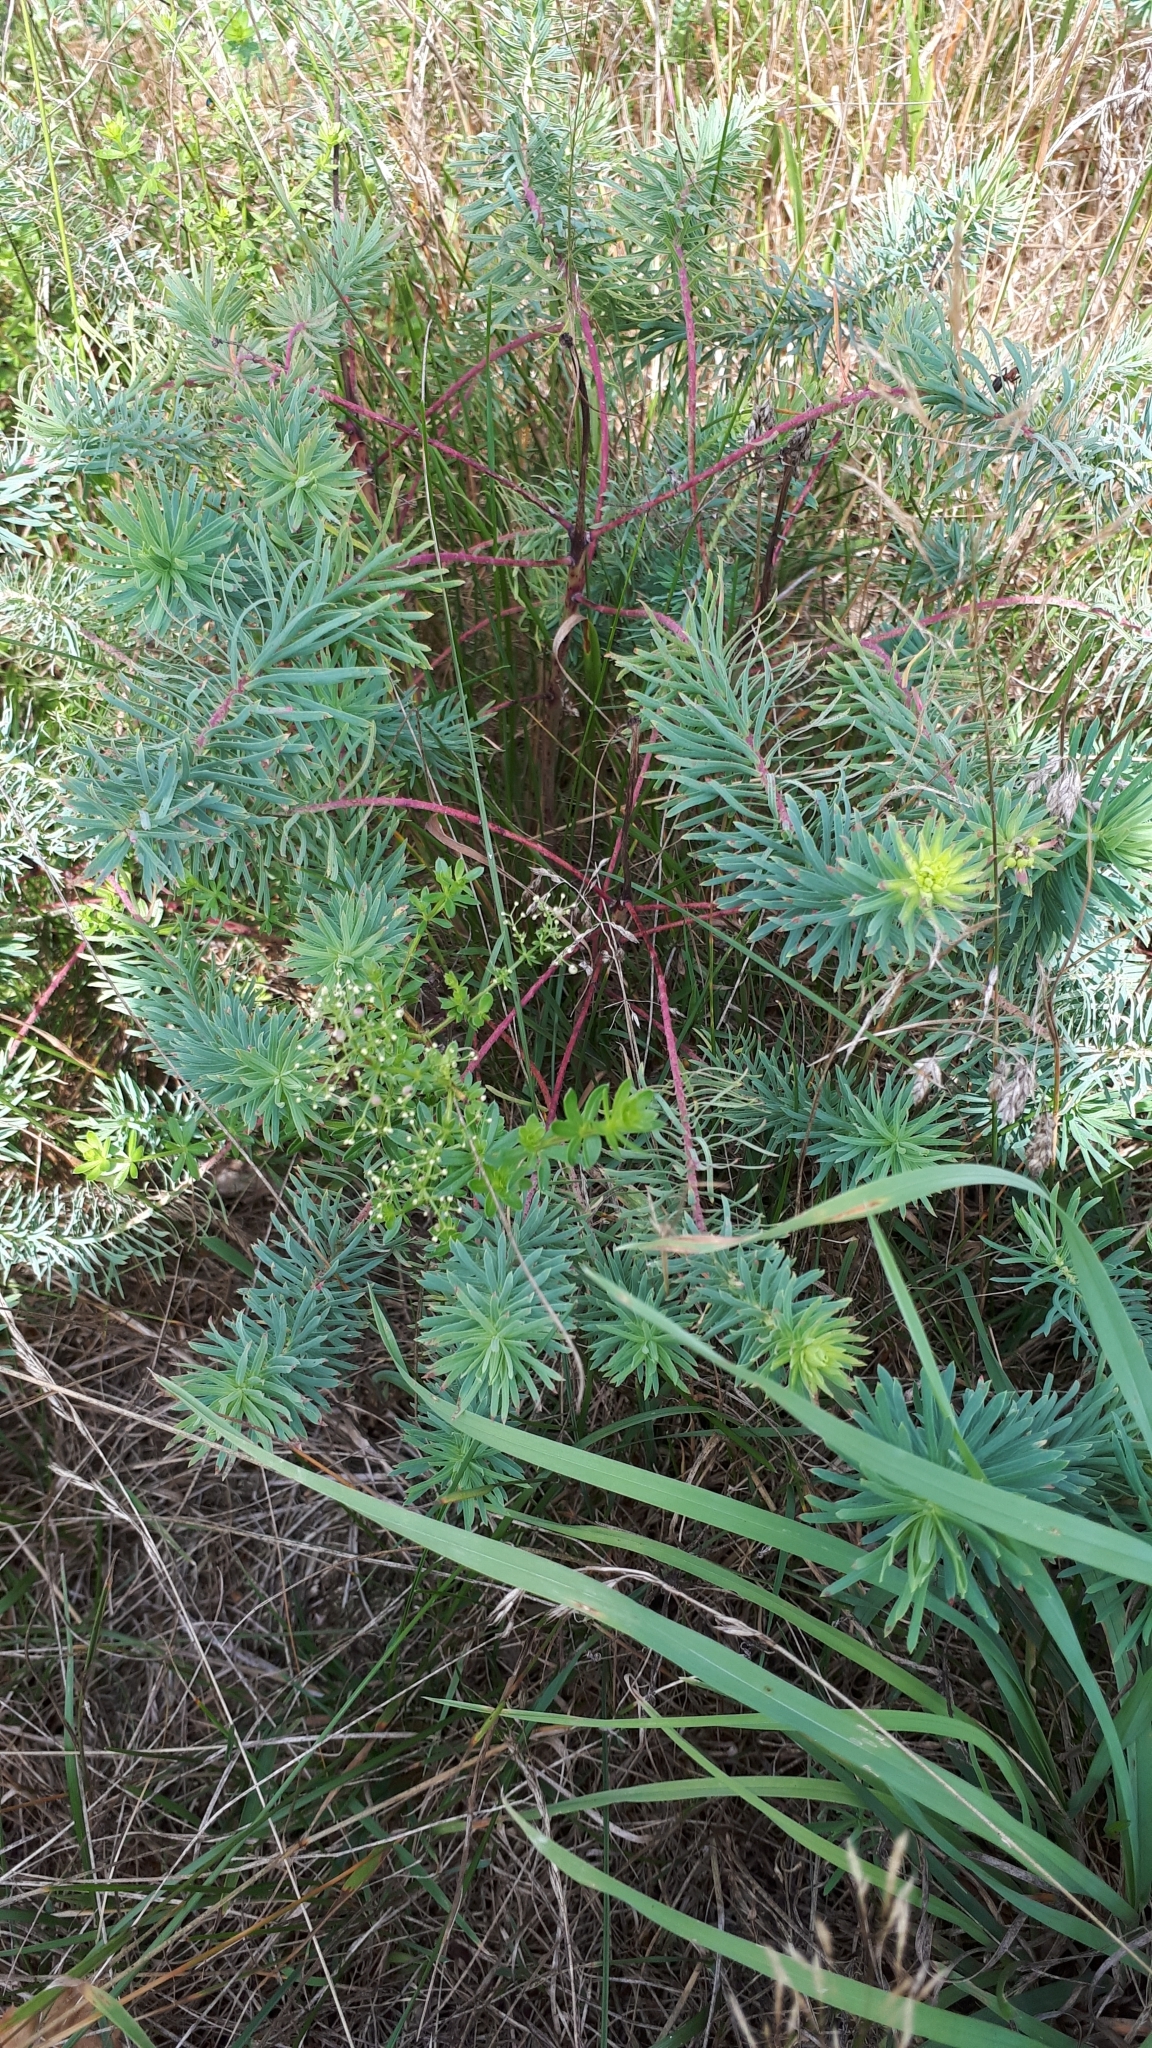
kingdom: Plantae
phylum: Tracheophyta
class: Magnoliopsida
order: Malpighiales
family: Euphorbiaceae
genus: Euphorbia
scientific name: Euphorbia cyparissias
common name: Cypress spurge
